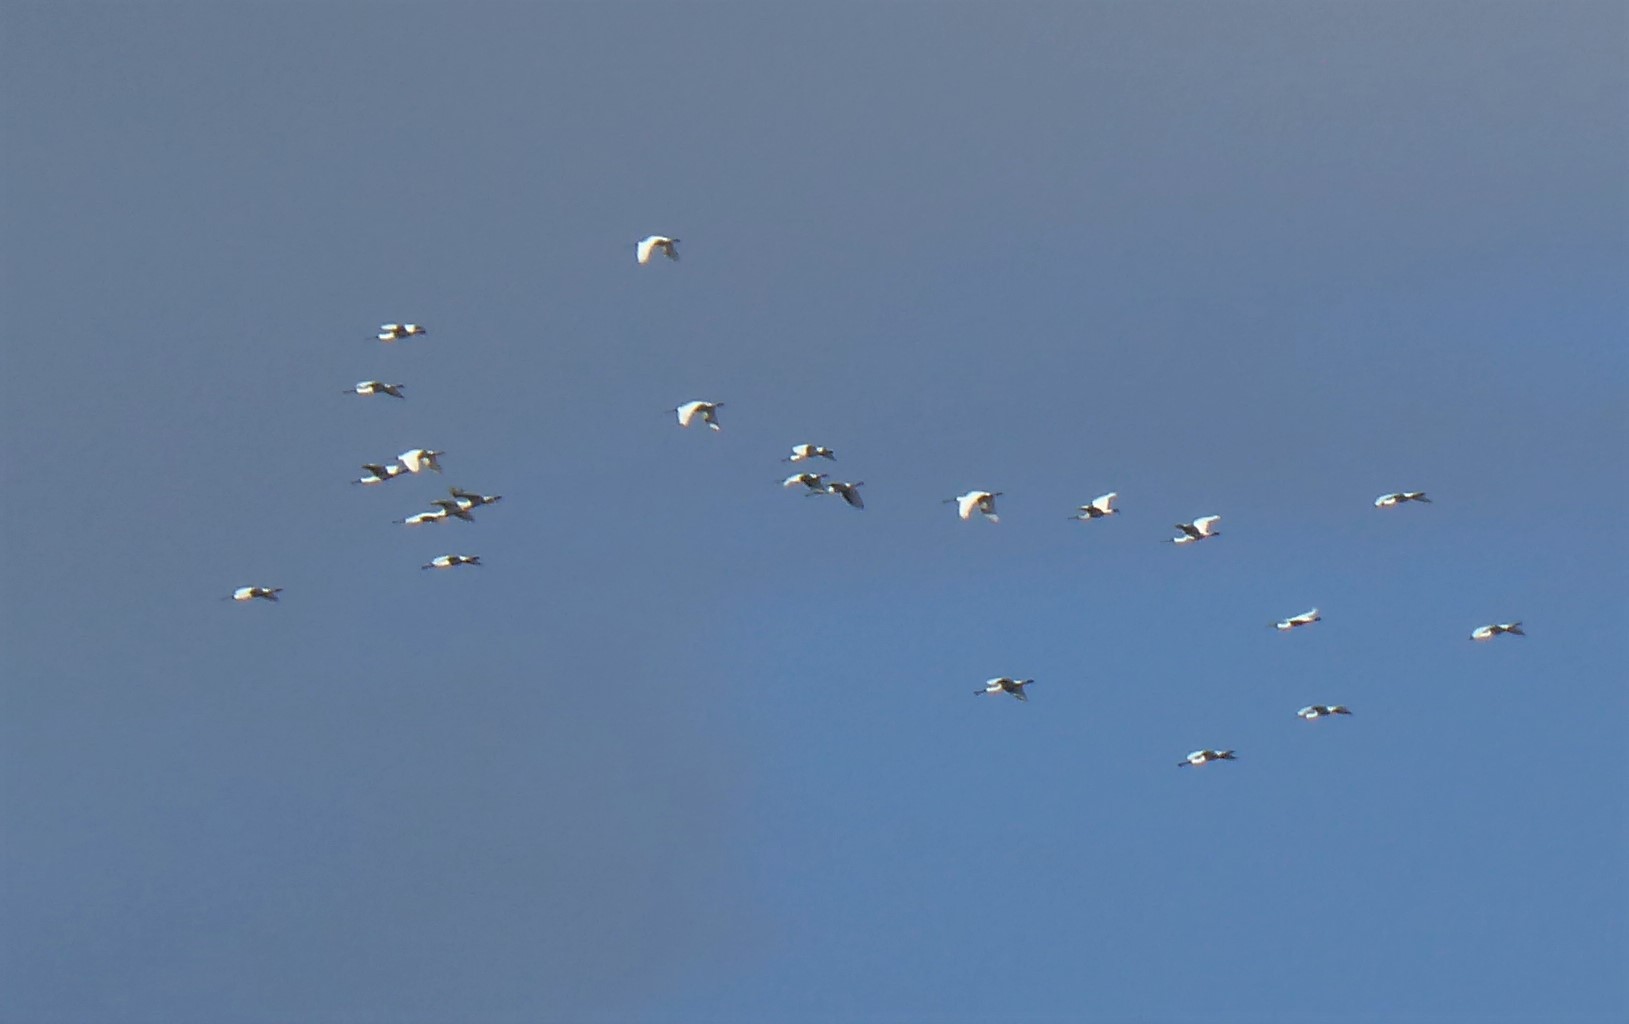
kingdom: Animalia
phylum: Chordata
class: Aves
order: Pelecaniformes
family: Threskiornithidae
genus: Platalea
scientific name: Platalea regia
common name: Royal spoonbill
